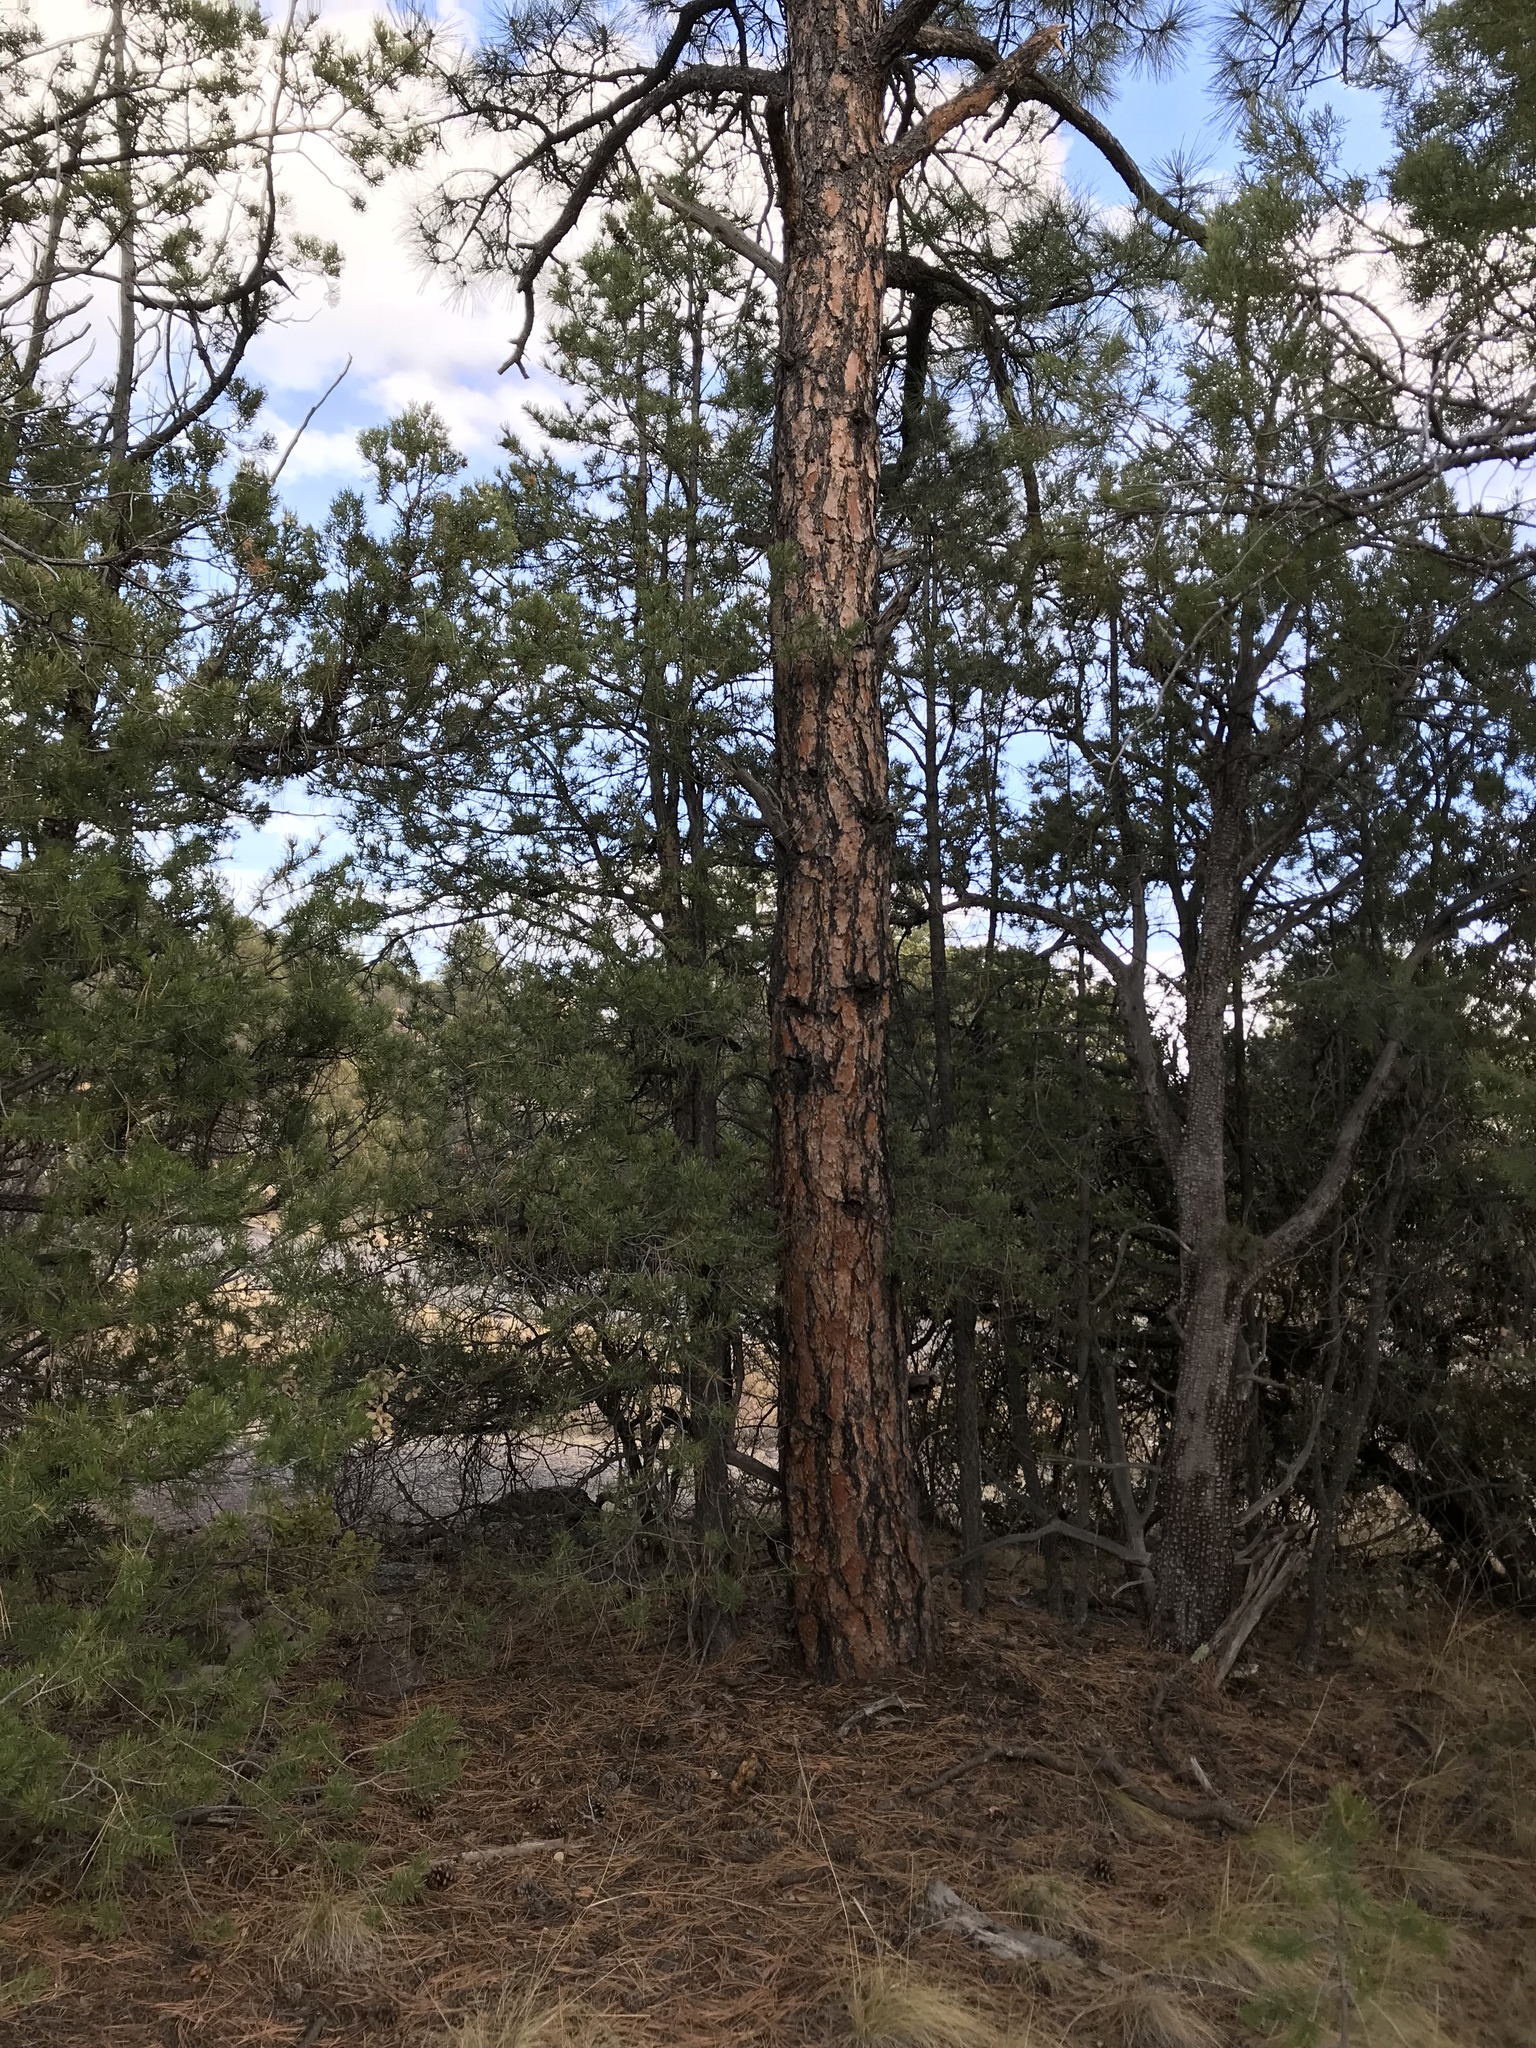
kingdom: Plantae
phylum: Tracheophyta
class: Pinopsida
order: Pinales
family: Pinaceae
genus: Pinus
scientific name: Pinus ponderosa
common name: Western yellow-pine
